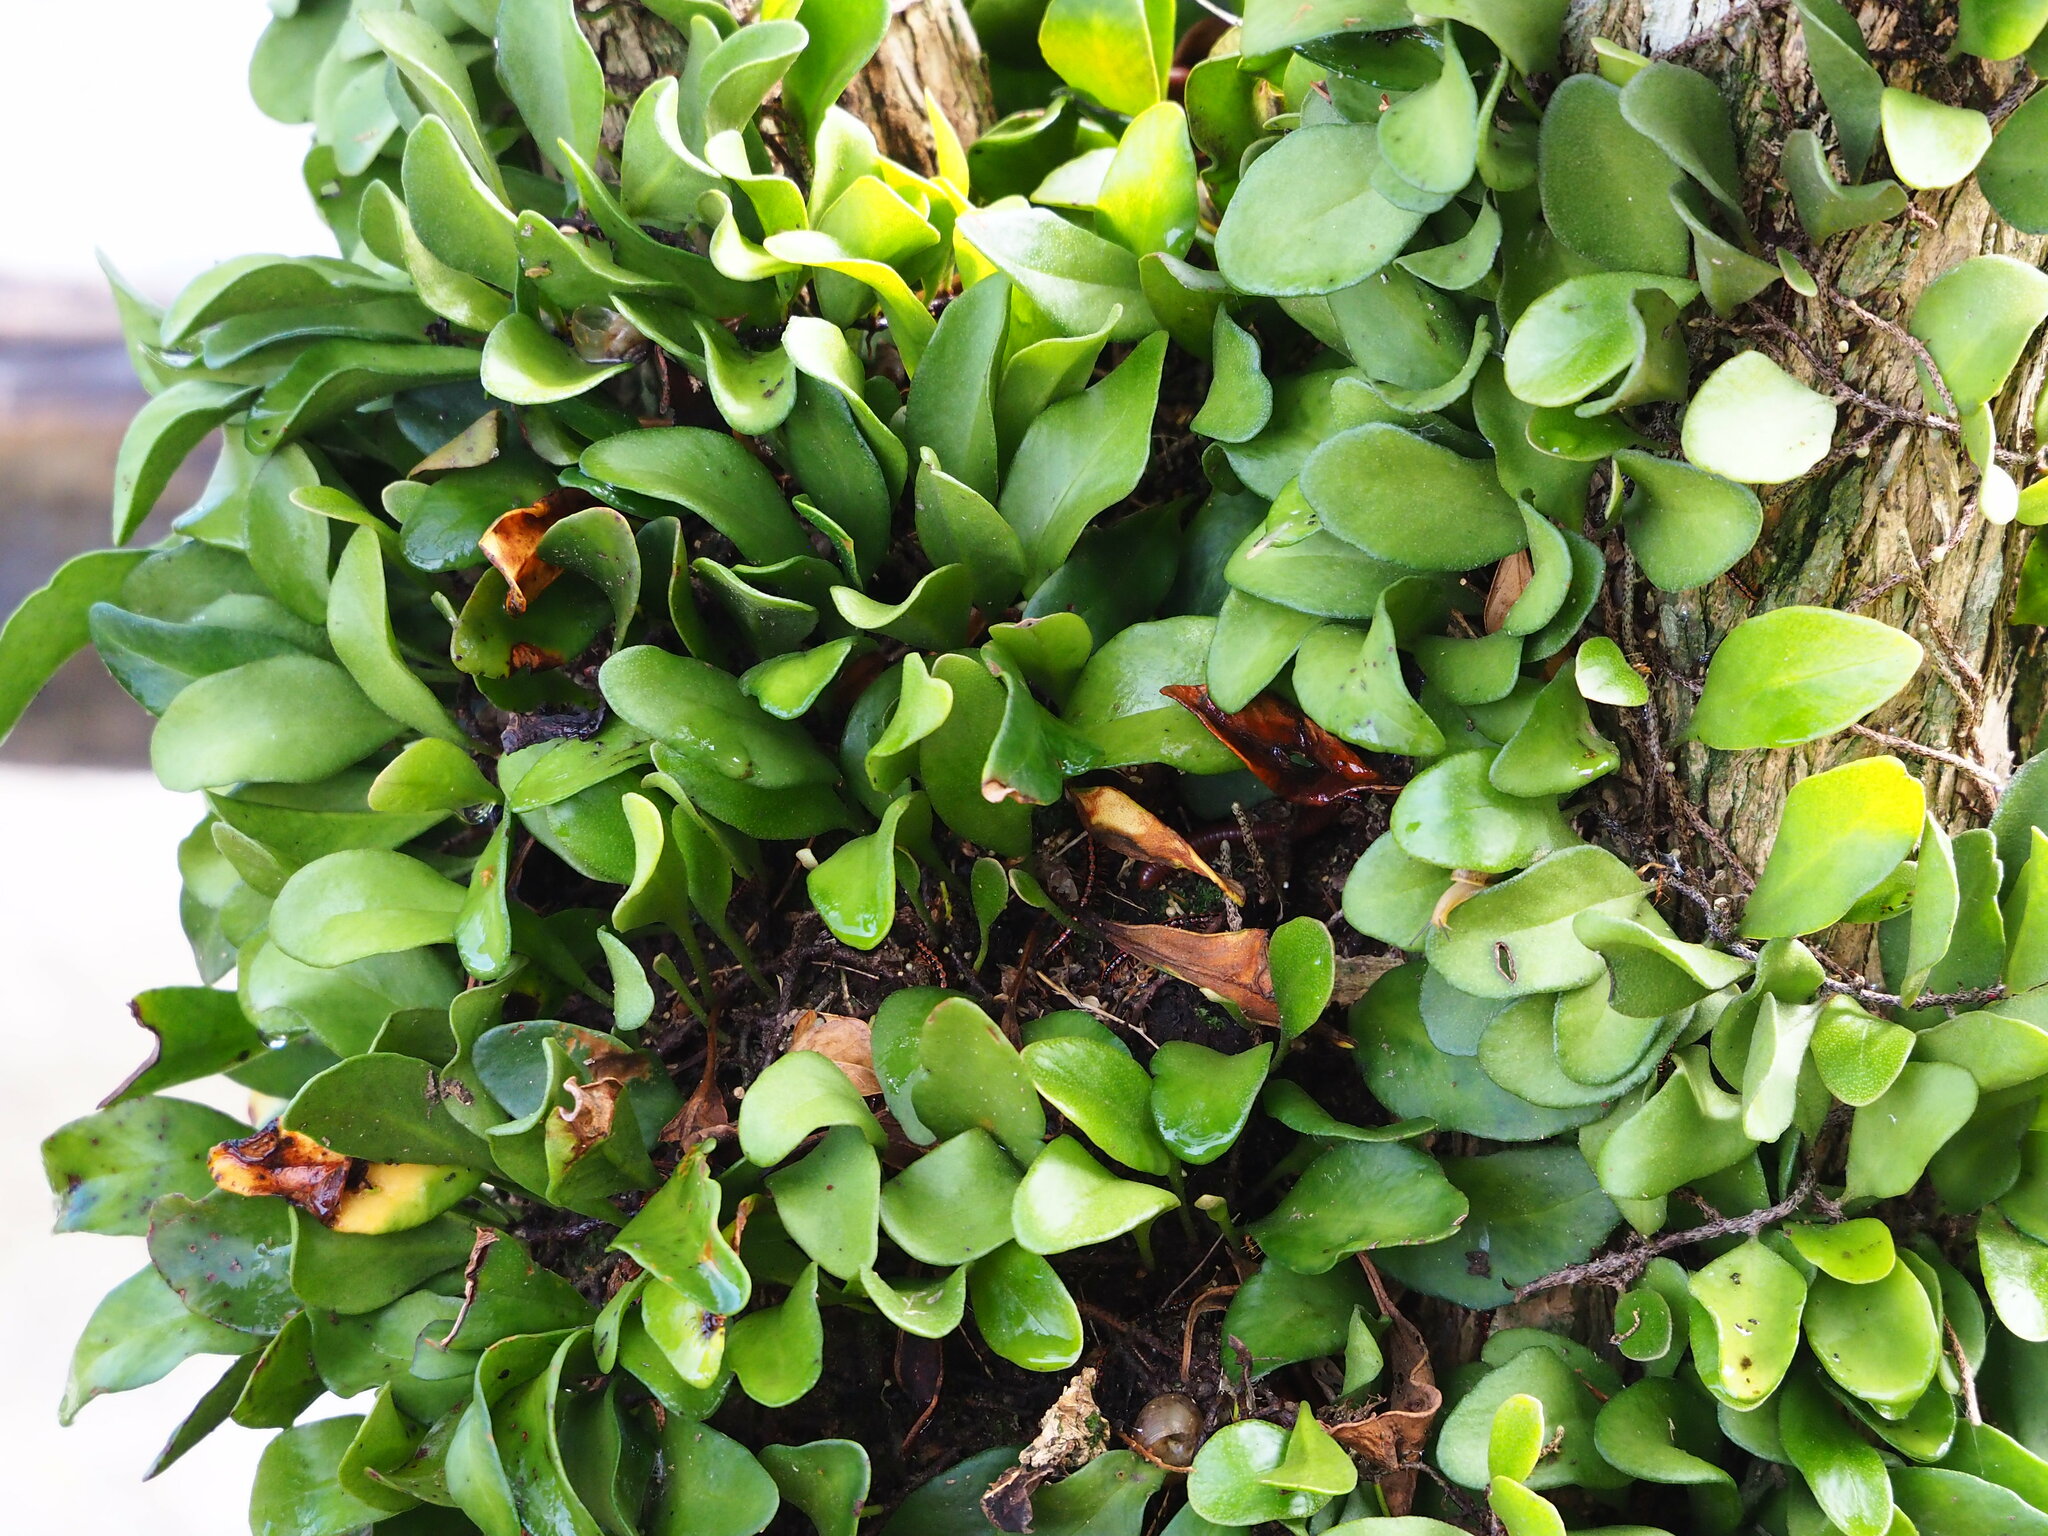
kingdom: Plantae
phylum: Tracheophyta
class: Polypodiopsida
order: Polypodiales
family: Polypodiaceae
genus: Pyrrosia
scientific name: Pyrrosia lanceolata
